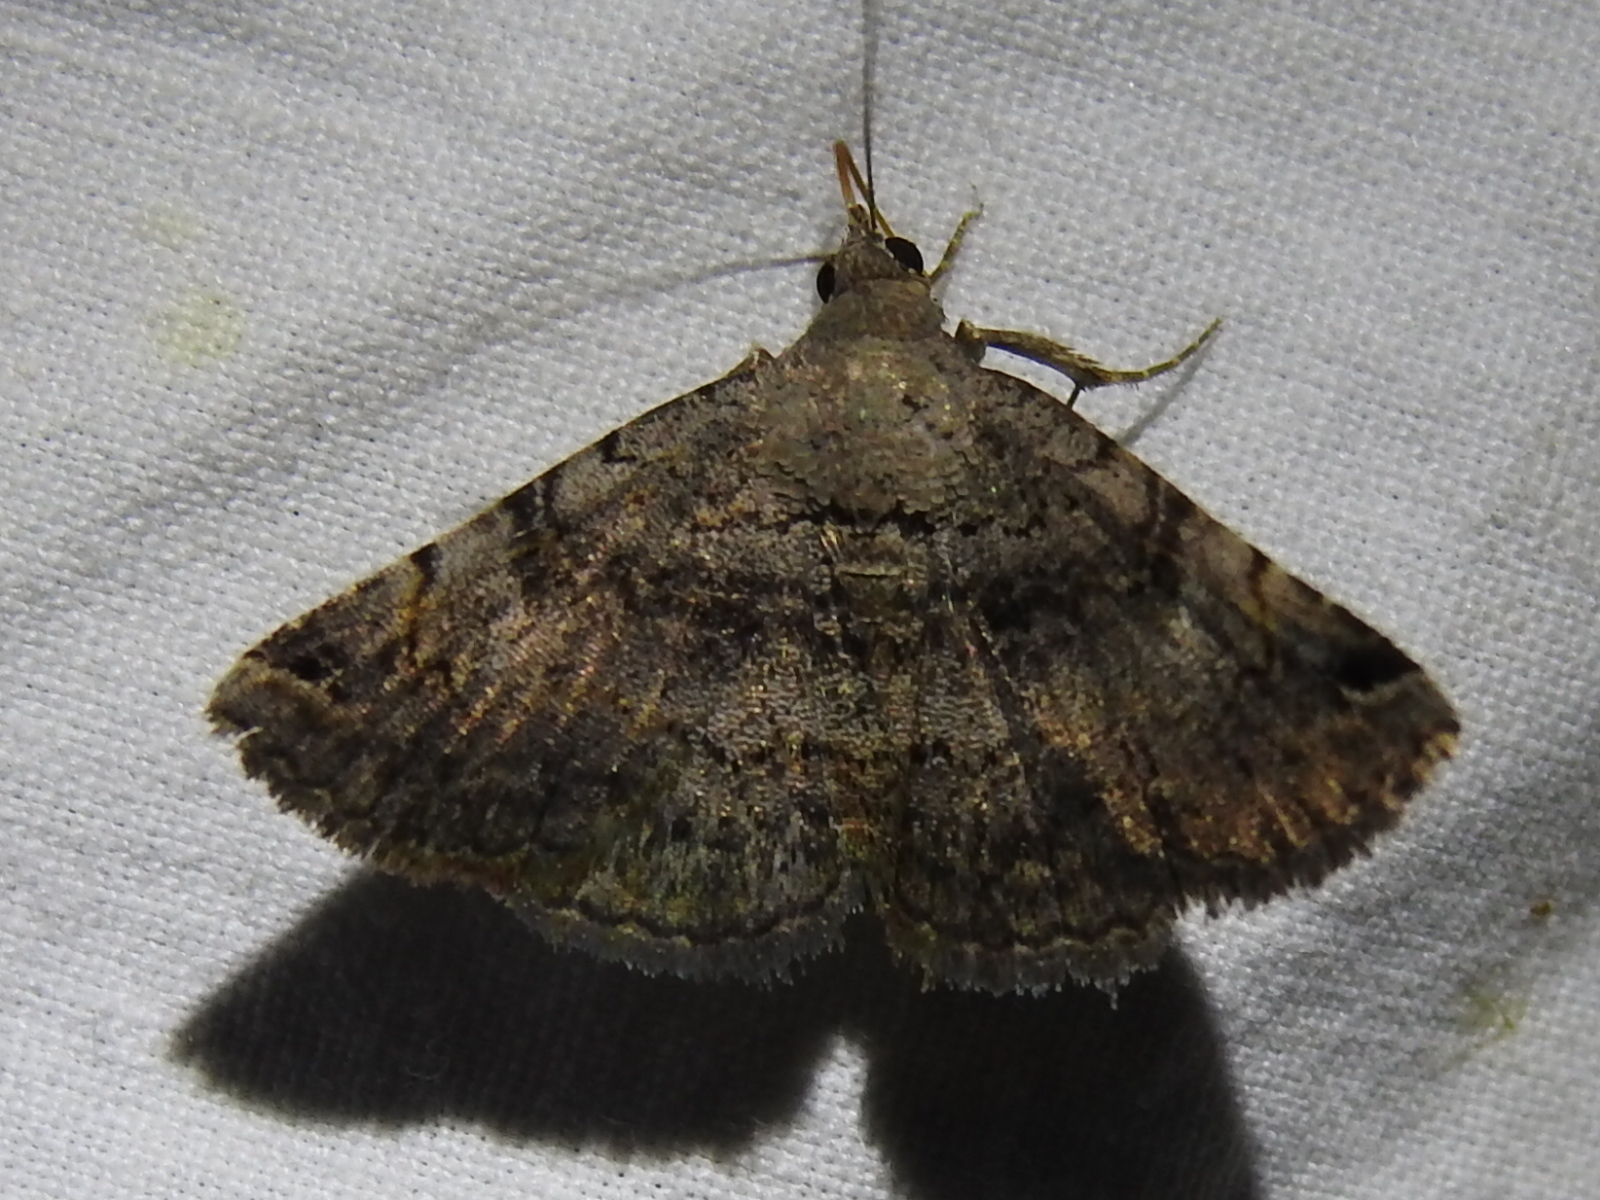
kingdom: Animalia
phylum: Arthropoda
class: Insecta
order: Lepidoptera
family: Erebidae
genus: Toxonprucha
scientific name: Toxonprucha crudelis
